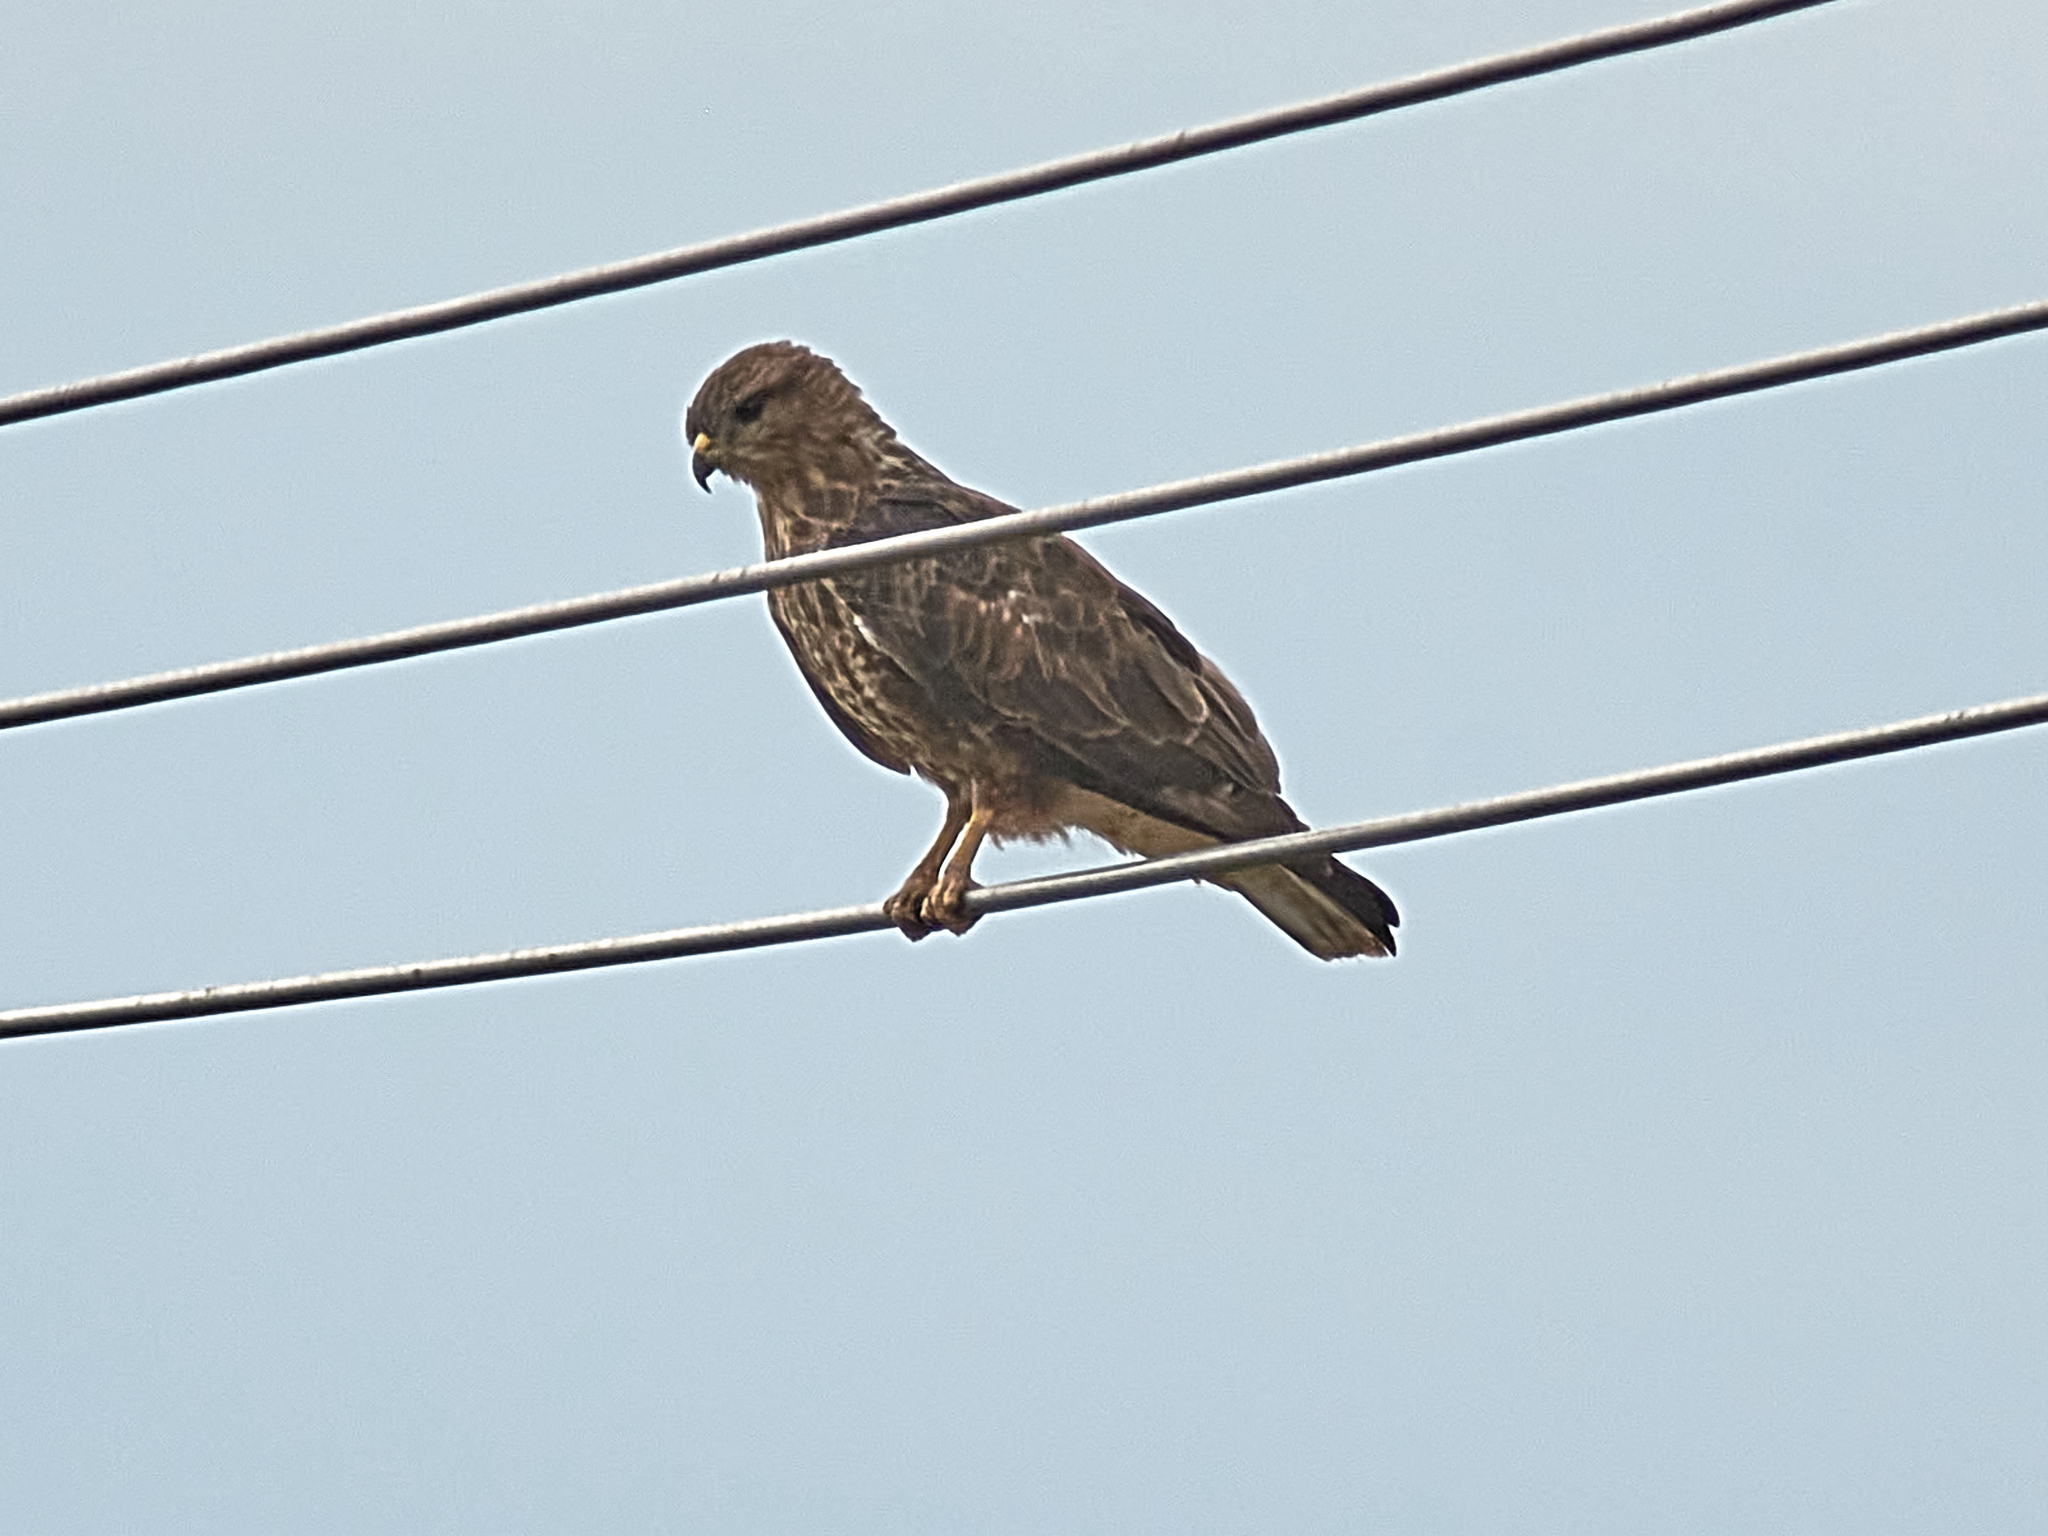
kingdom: Animalia
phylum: Chordata
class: Aves
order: Accipitriformes
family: Accipitridae
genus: Buteo
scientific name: Buteo buteo
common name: Common buzzard
